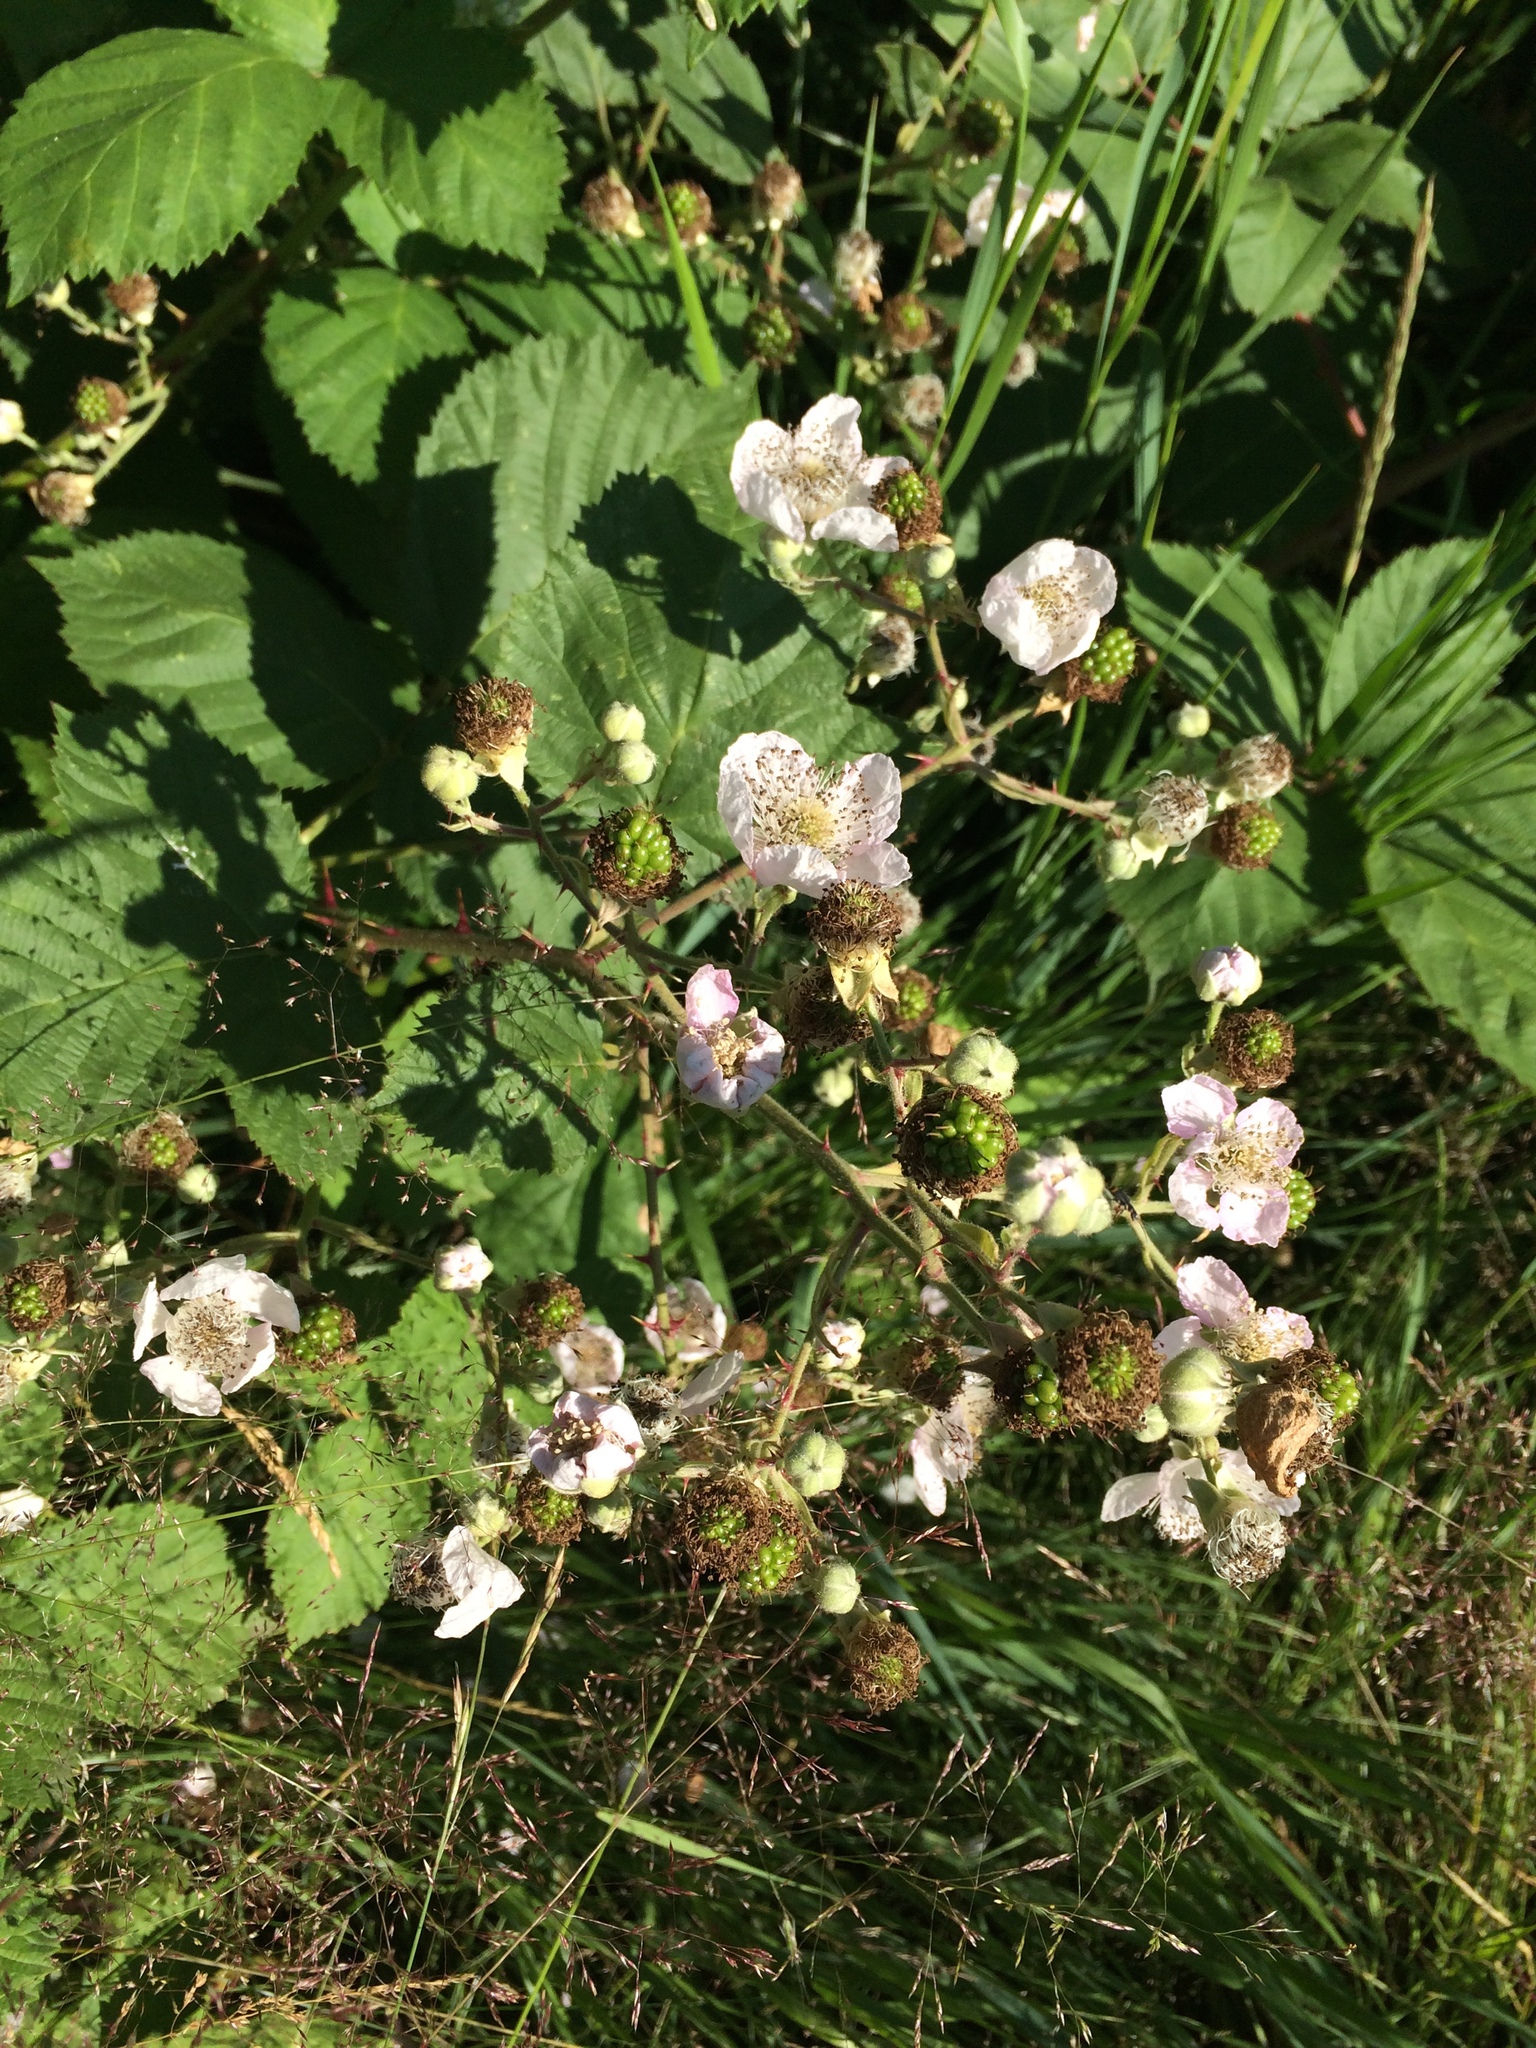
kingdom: Plantae
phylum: Tracheophyta
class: Magnoliopsida
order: Rosales
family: Rosaceae
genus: Rubus
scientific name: Rubus armeniacus
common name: Himalayan blackberry
